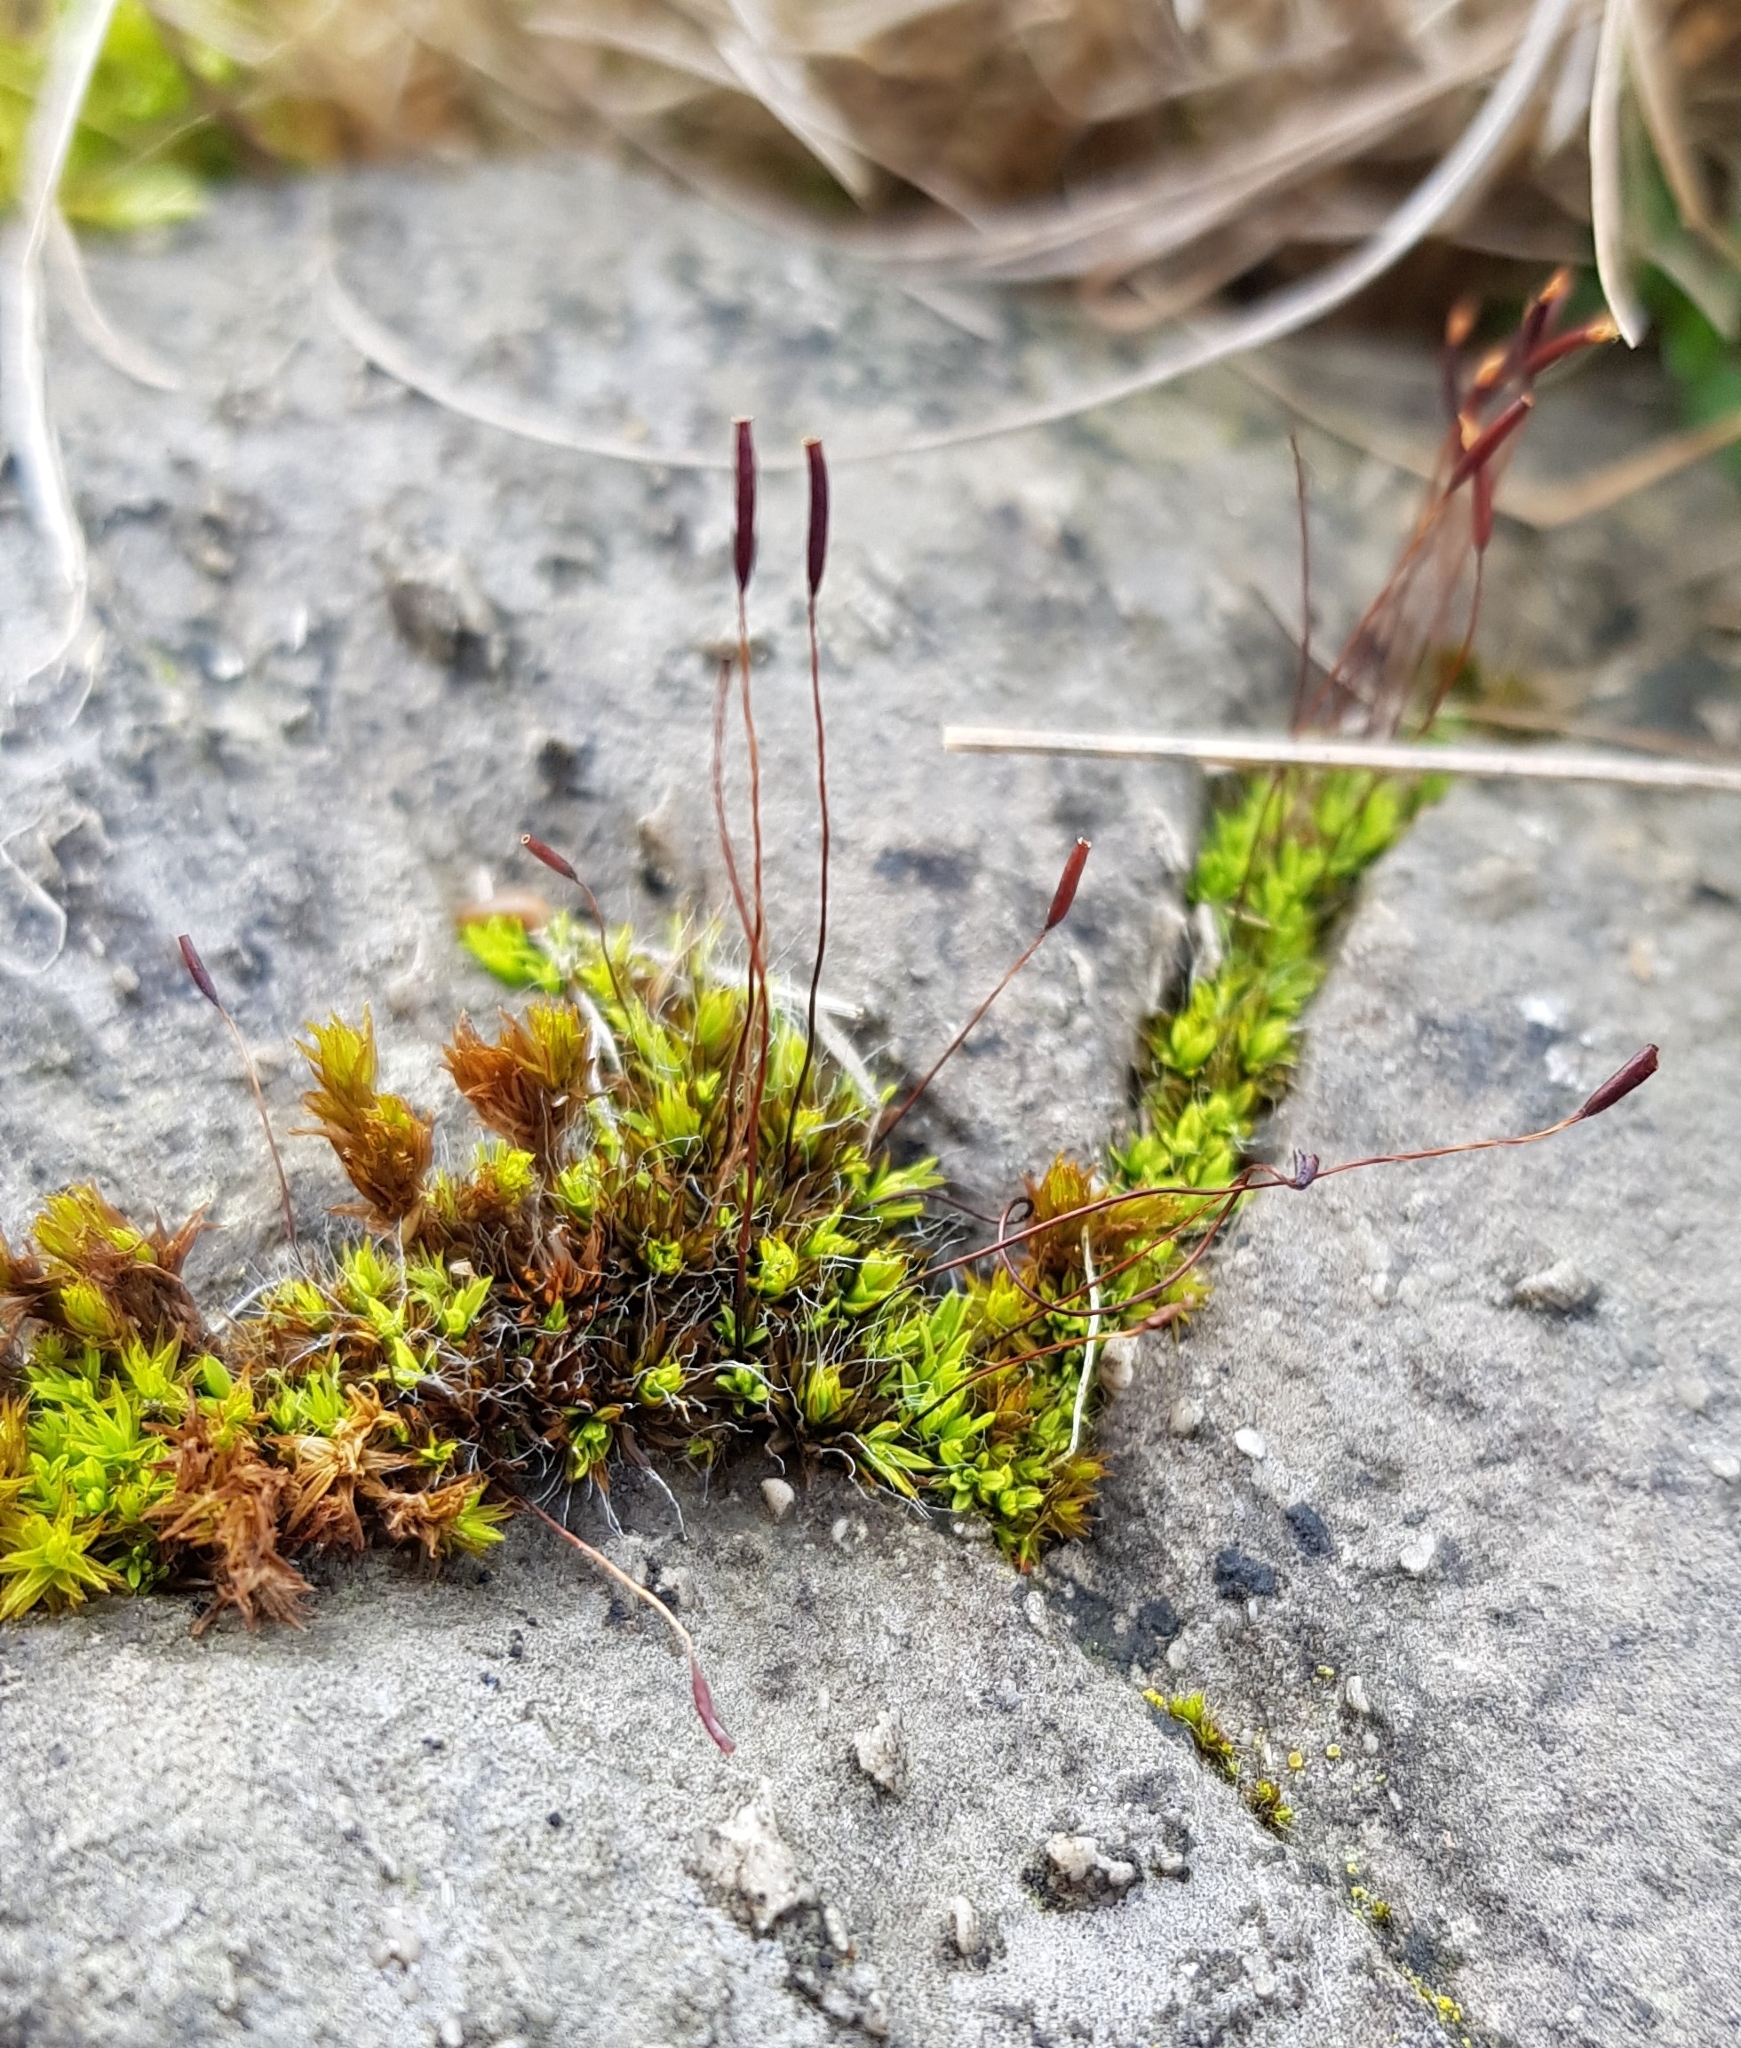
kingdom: Plantae
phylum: Bryophyta
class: Bryopsida
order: Pottiales
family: Pottiaceae
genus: Tortula
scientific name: Tortula muralis
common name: Wall screw-moss
